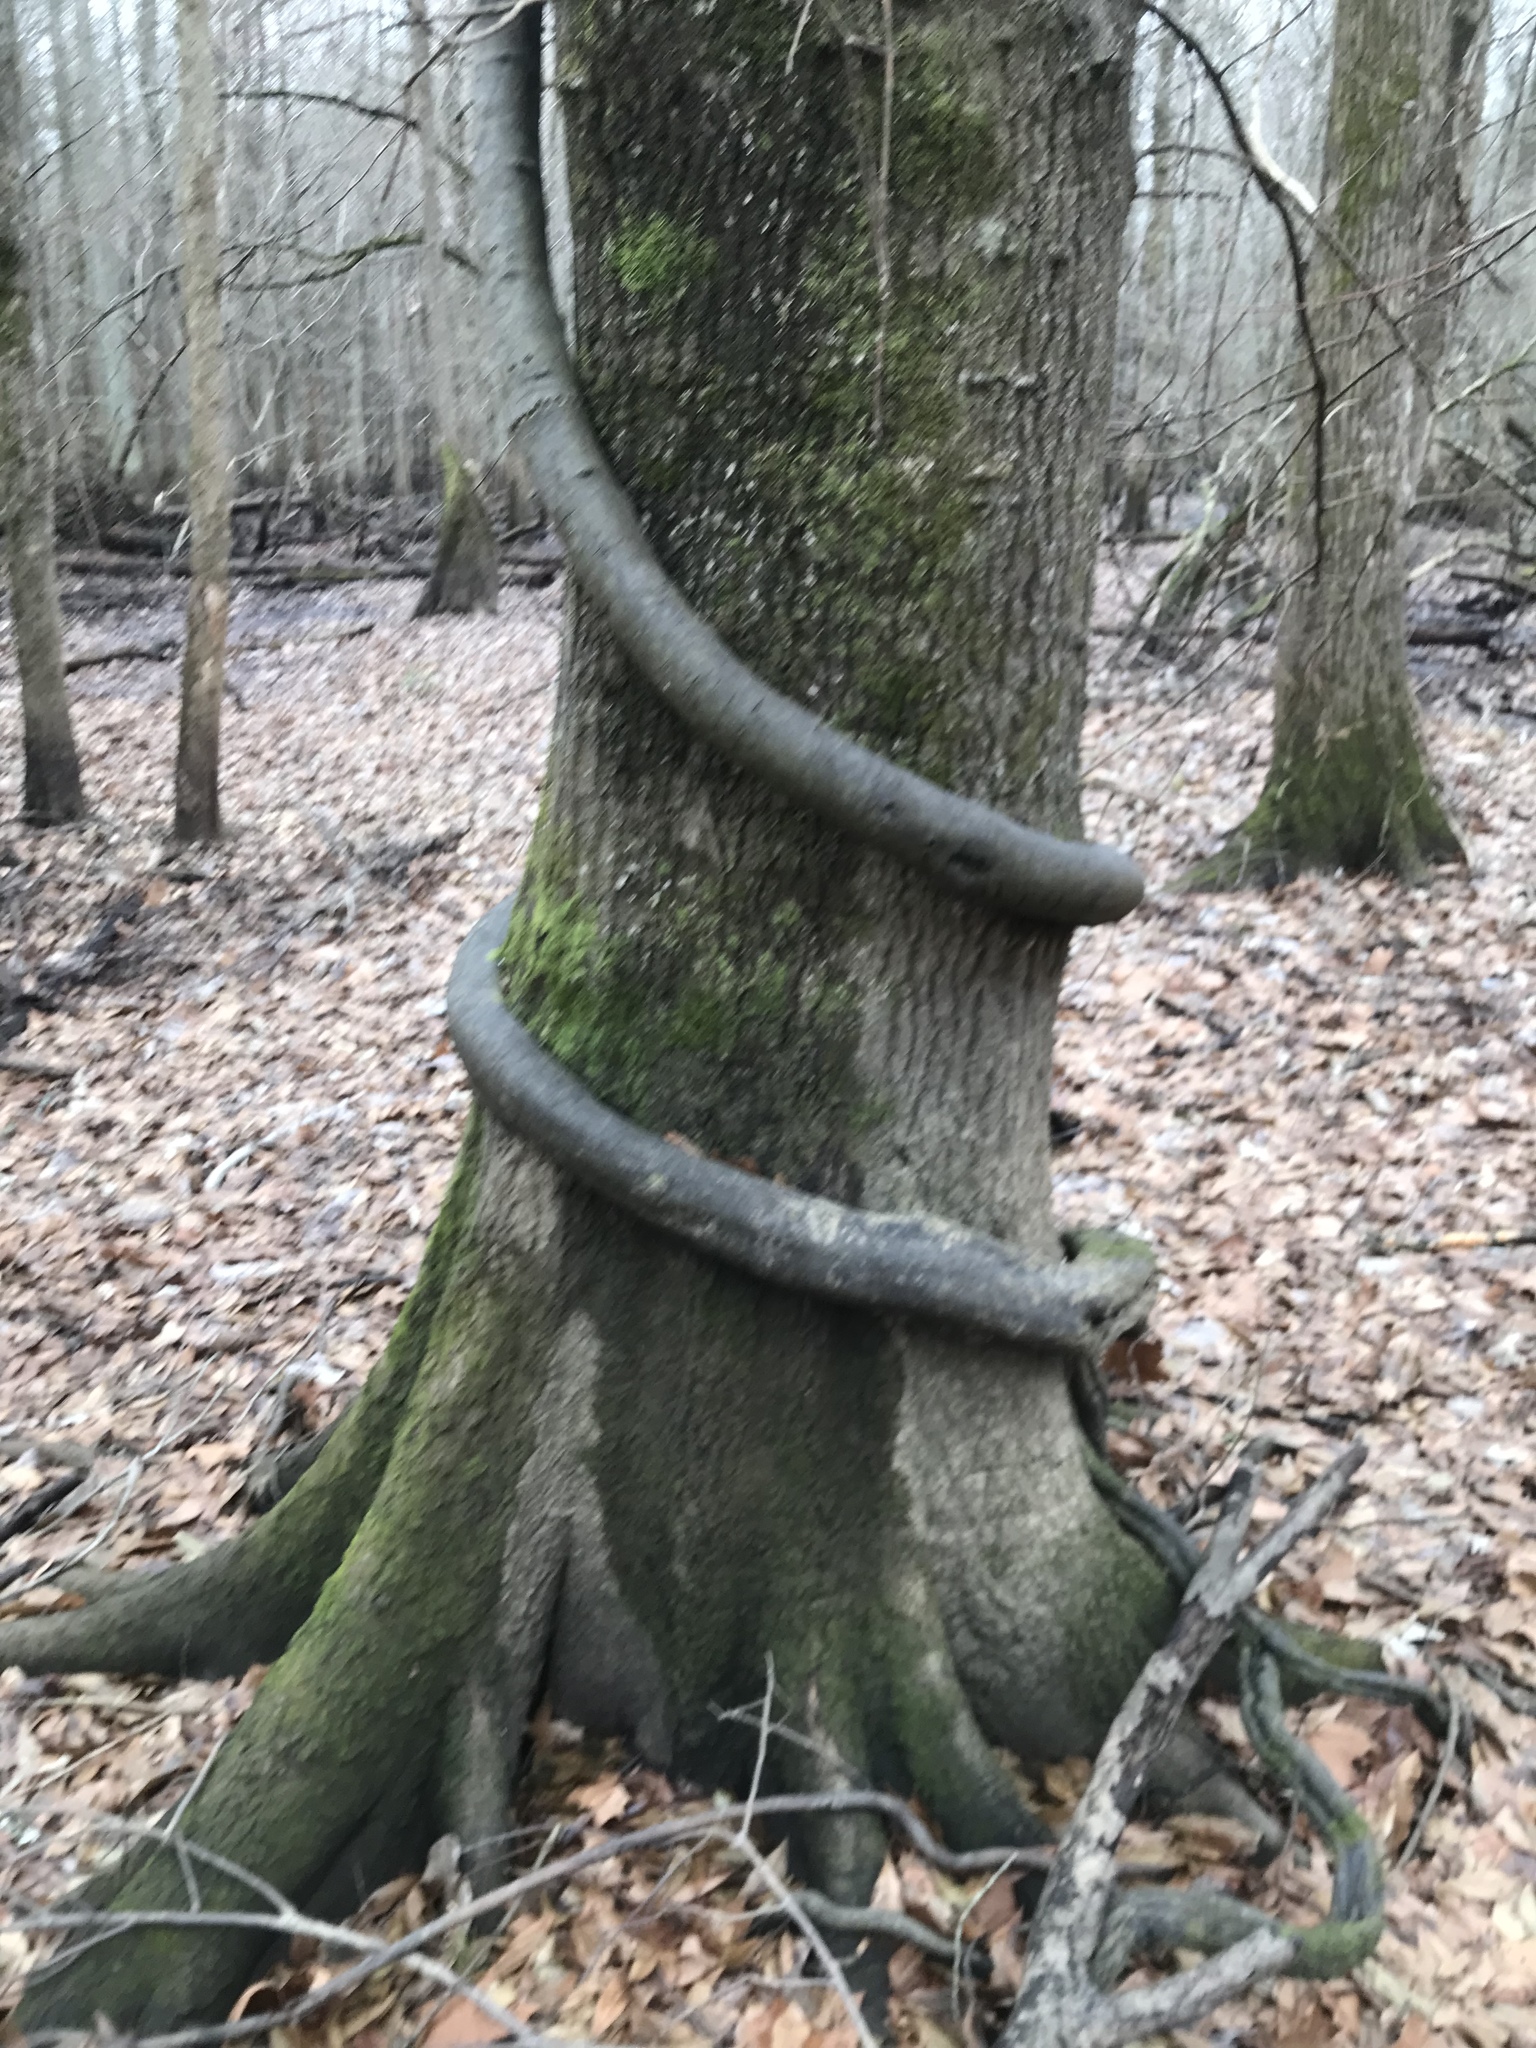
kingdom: Plantae
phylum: Tracheophyta
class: Magnoliopsida
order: Rosales
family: Rhamnaceae
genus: Berchemia
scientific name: Berchemia scandens
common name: Supplejack
